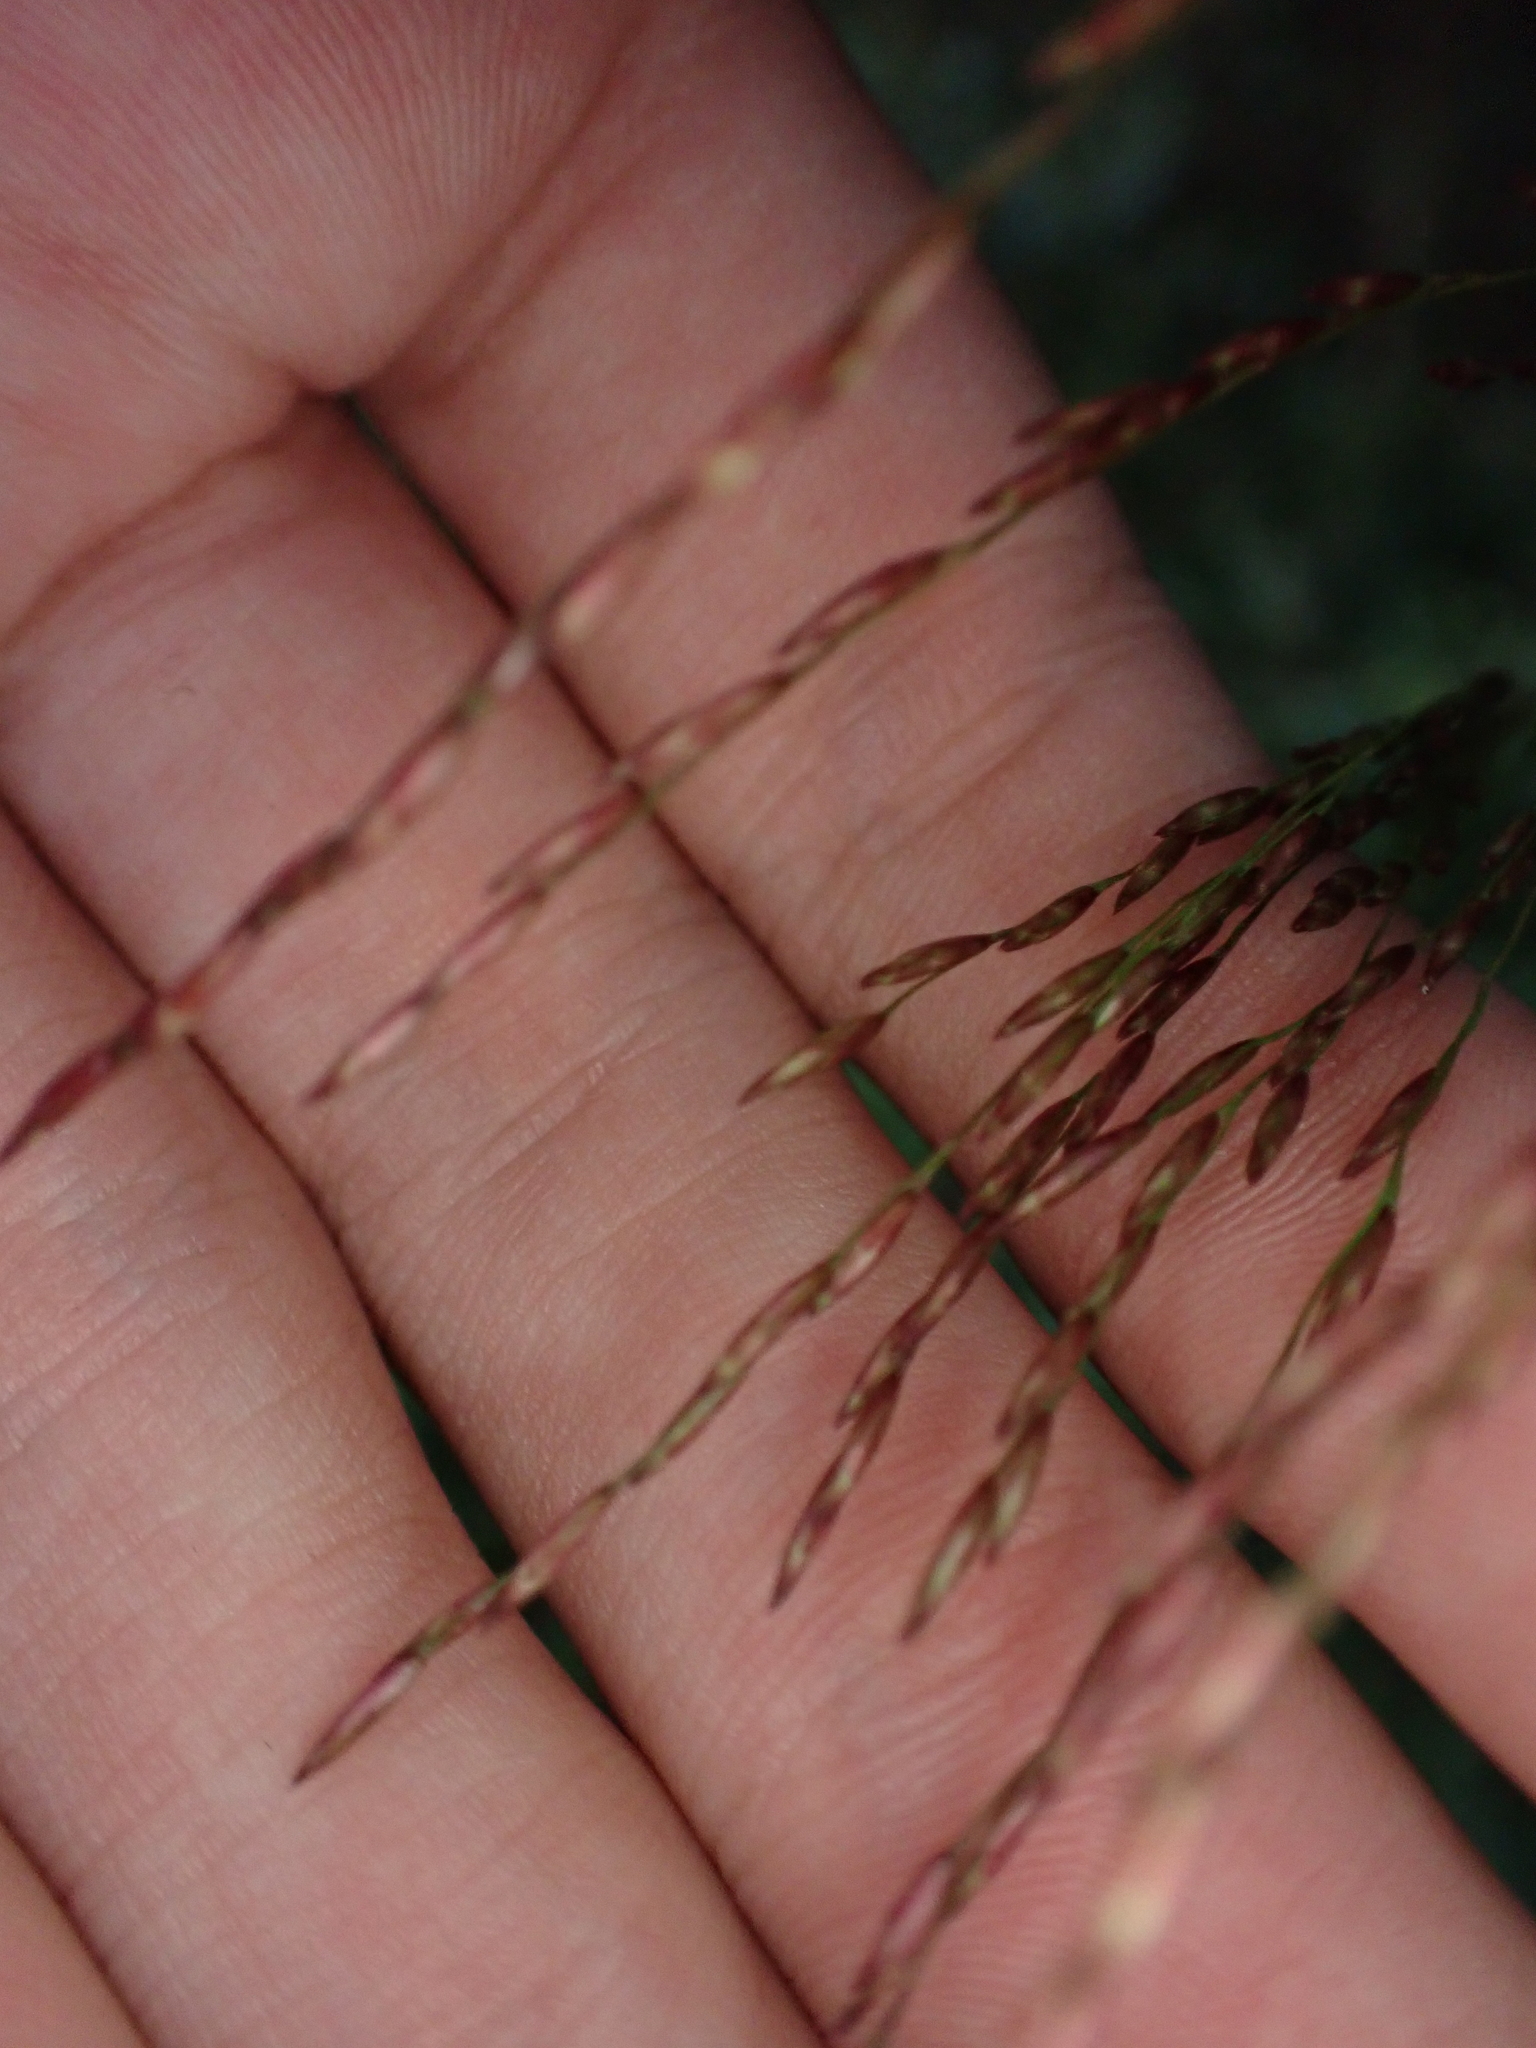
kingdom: Plantae
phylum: Tracheophyta
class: Liliopsida
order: Poales
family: Poaceae
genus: Tridens
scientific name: Tridens flavus
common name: Purpletop
